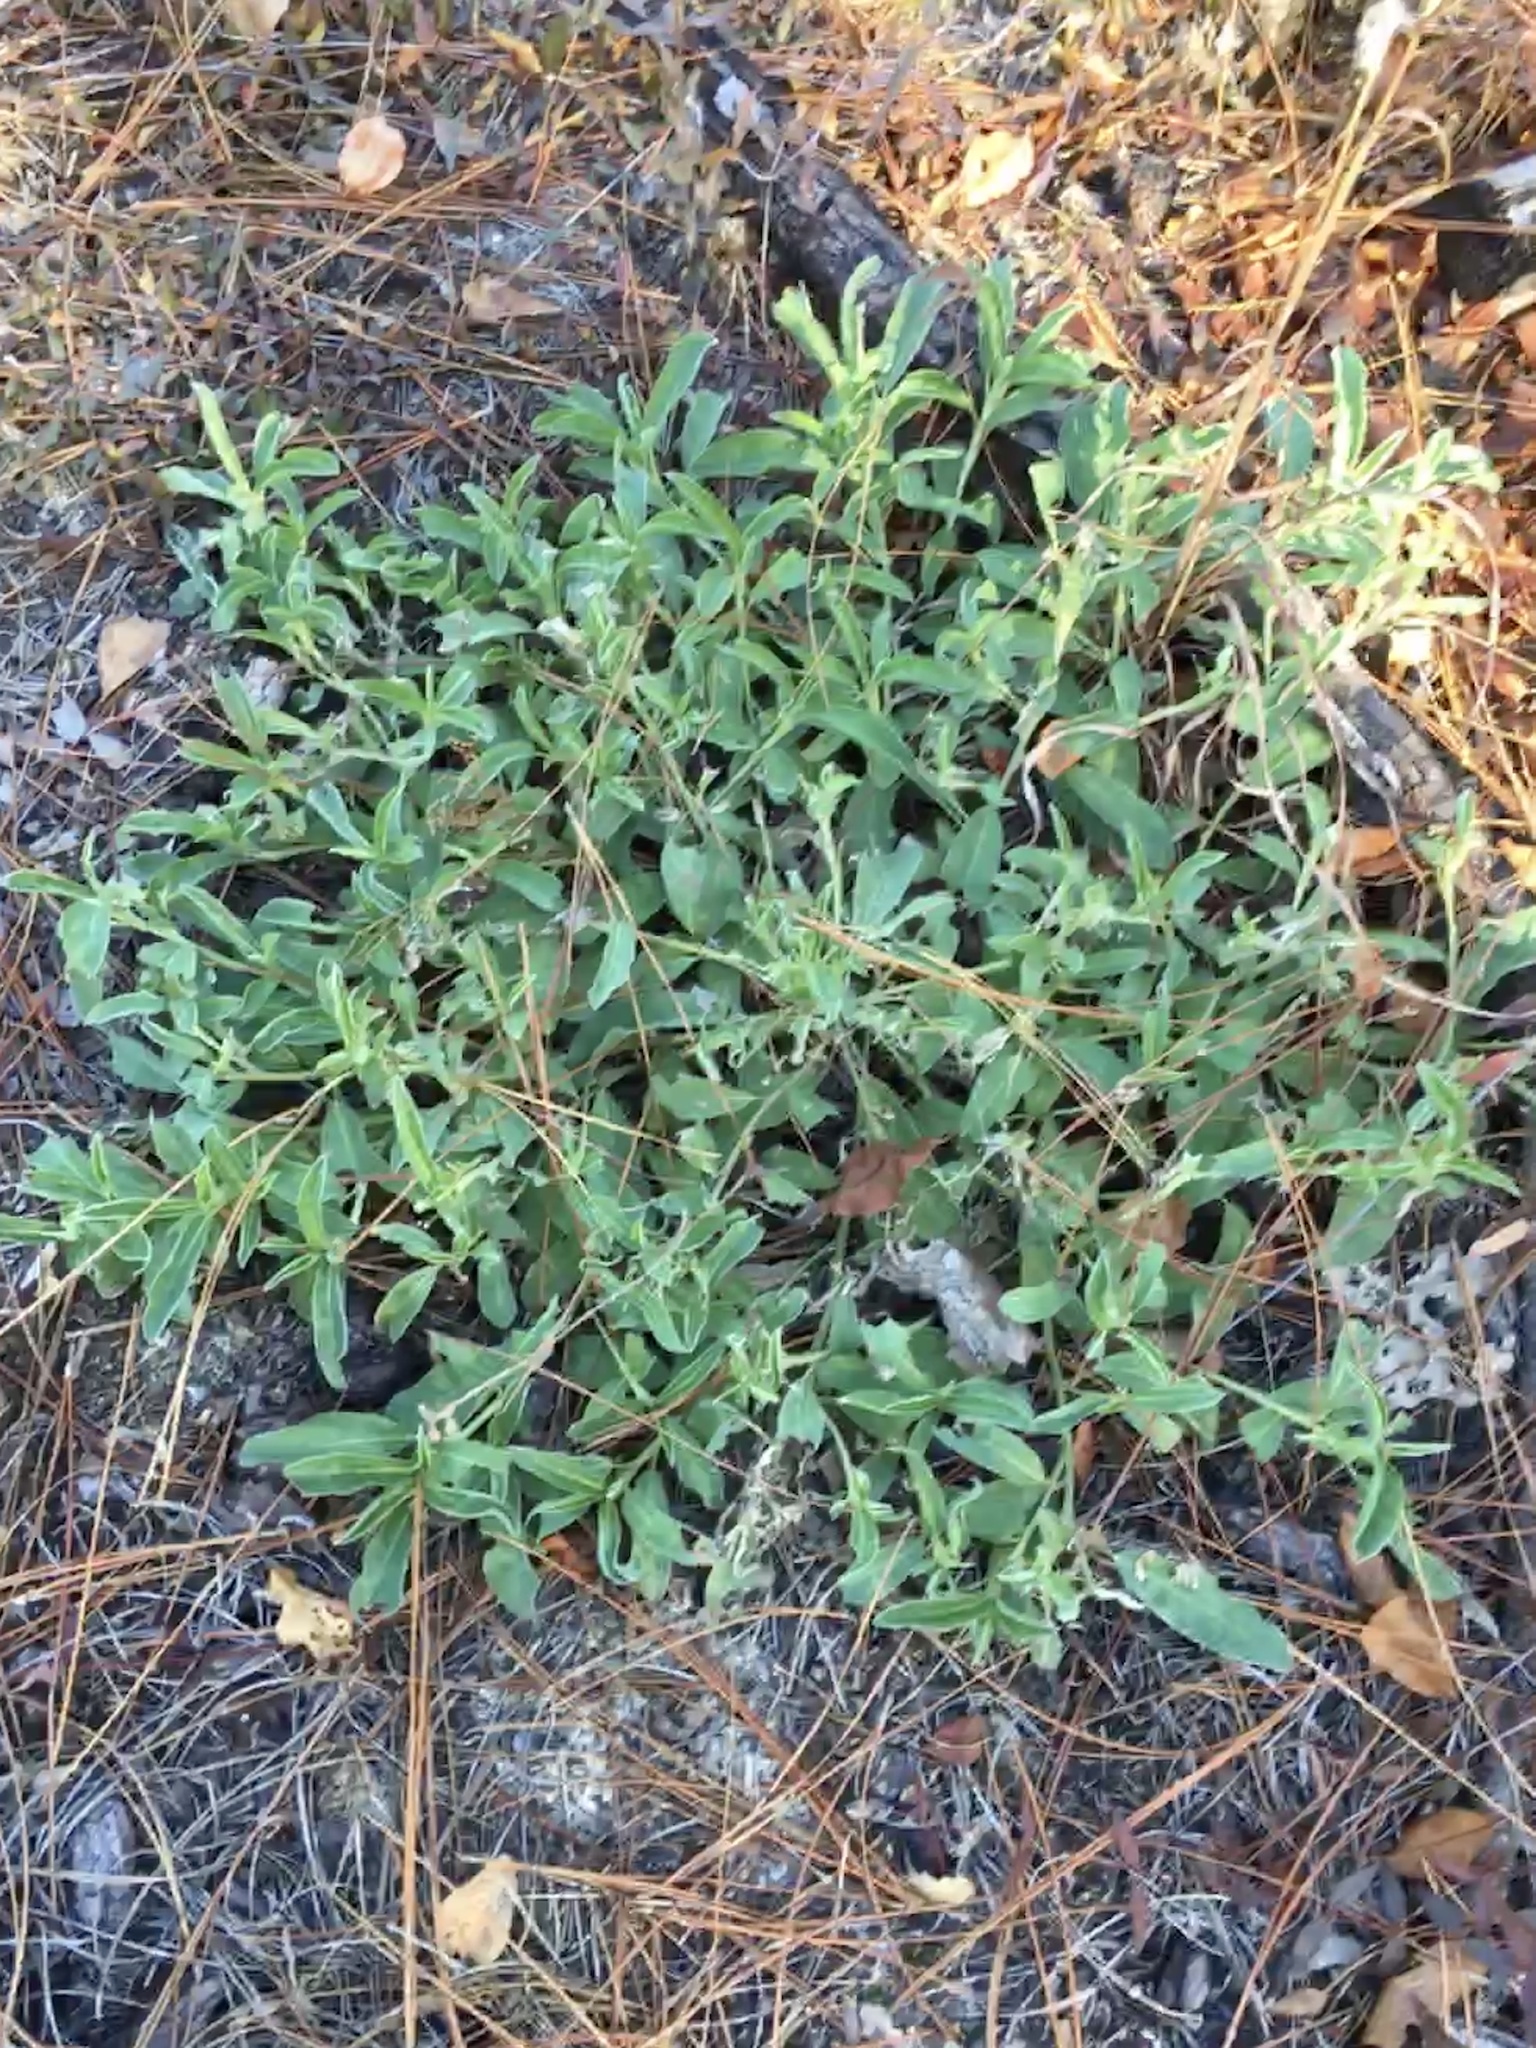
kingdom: Plantae
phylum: Tracheophyta
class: Magnoliopsida
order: Fabales
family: Fabaceae
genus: Lupinus
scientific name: Lupinus diffusus
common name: Oak ridge lupine
